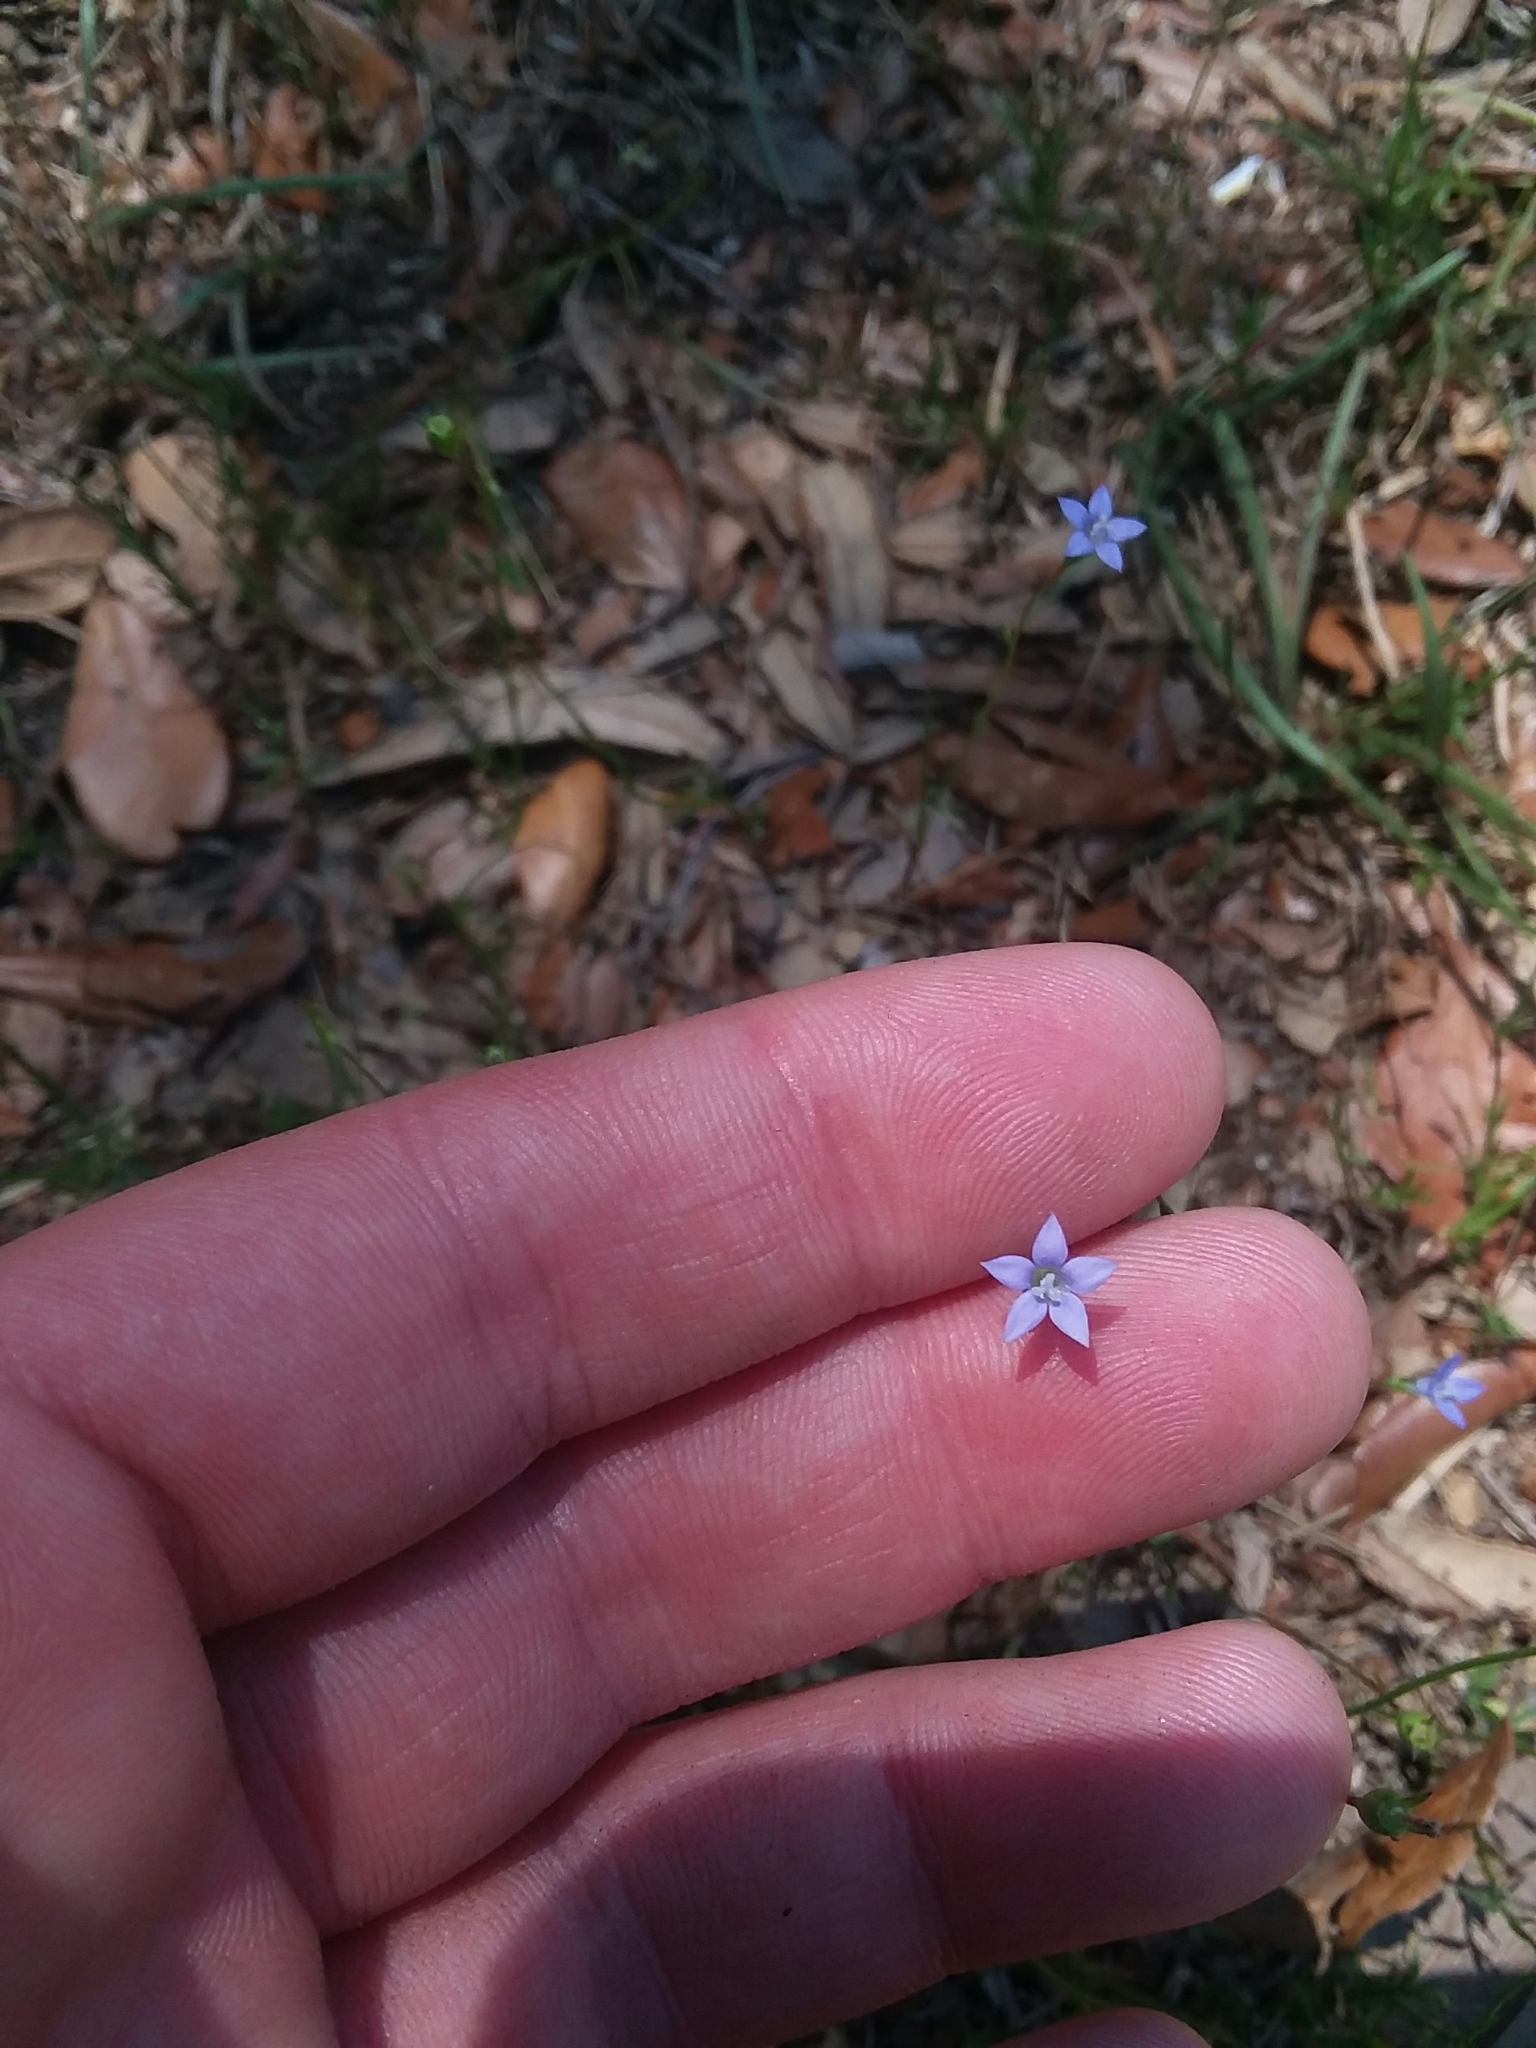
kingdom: Plantae
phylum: Tracheophyta
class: Magnoliopsida
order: Asterales
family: Campanulaceae
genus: Wahlenbergia
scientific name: Wahlenbergia marginata
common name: Southern rockbell
